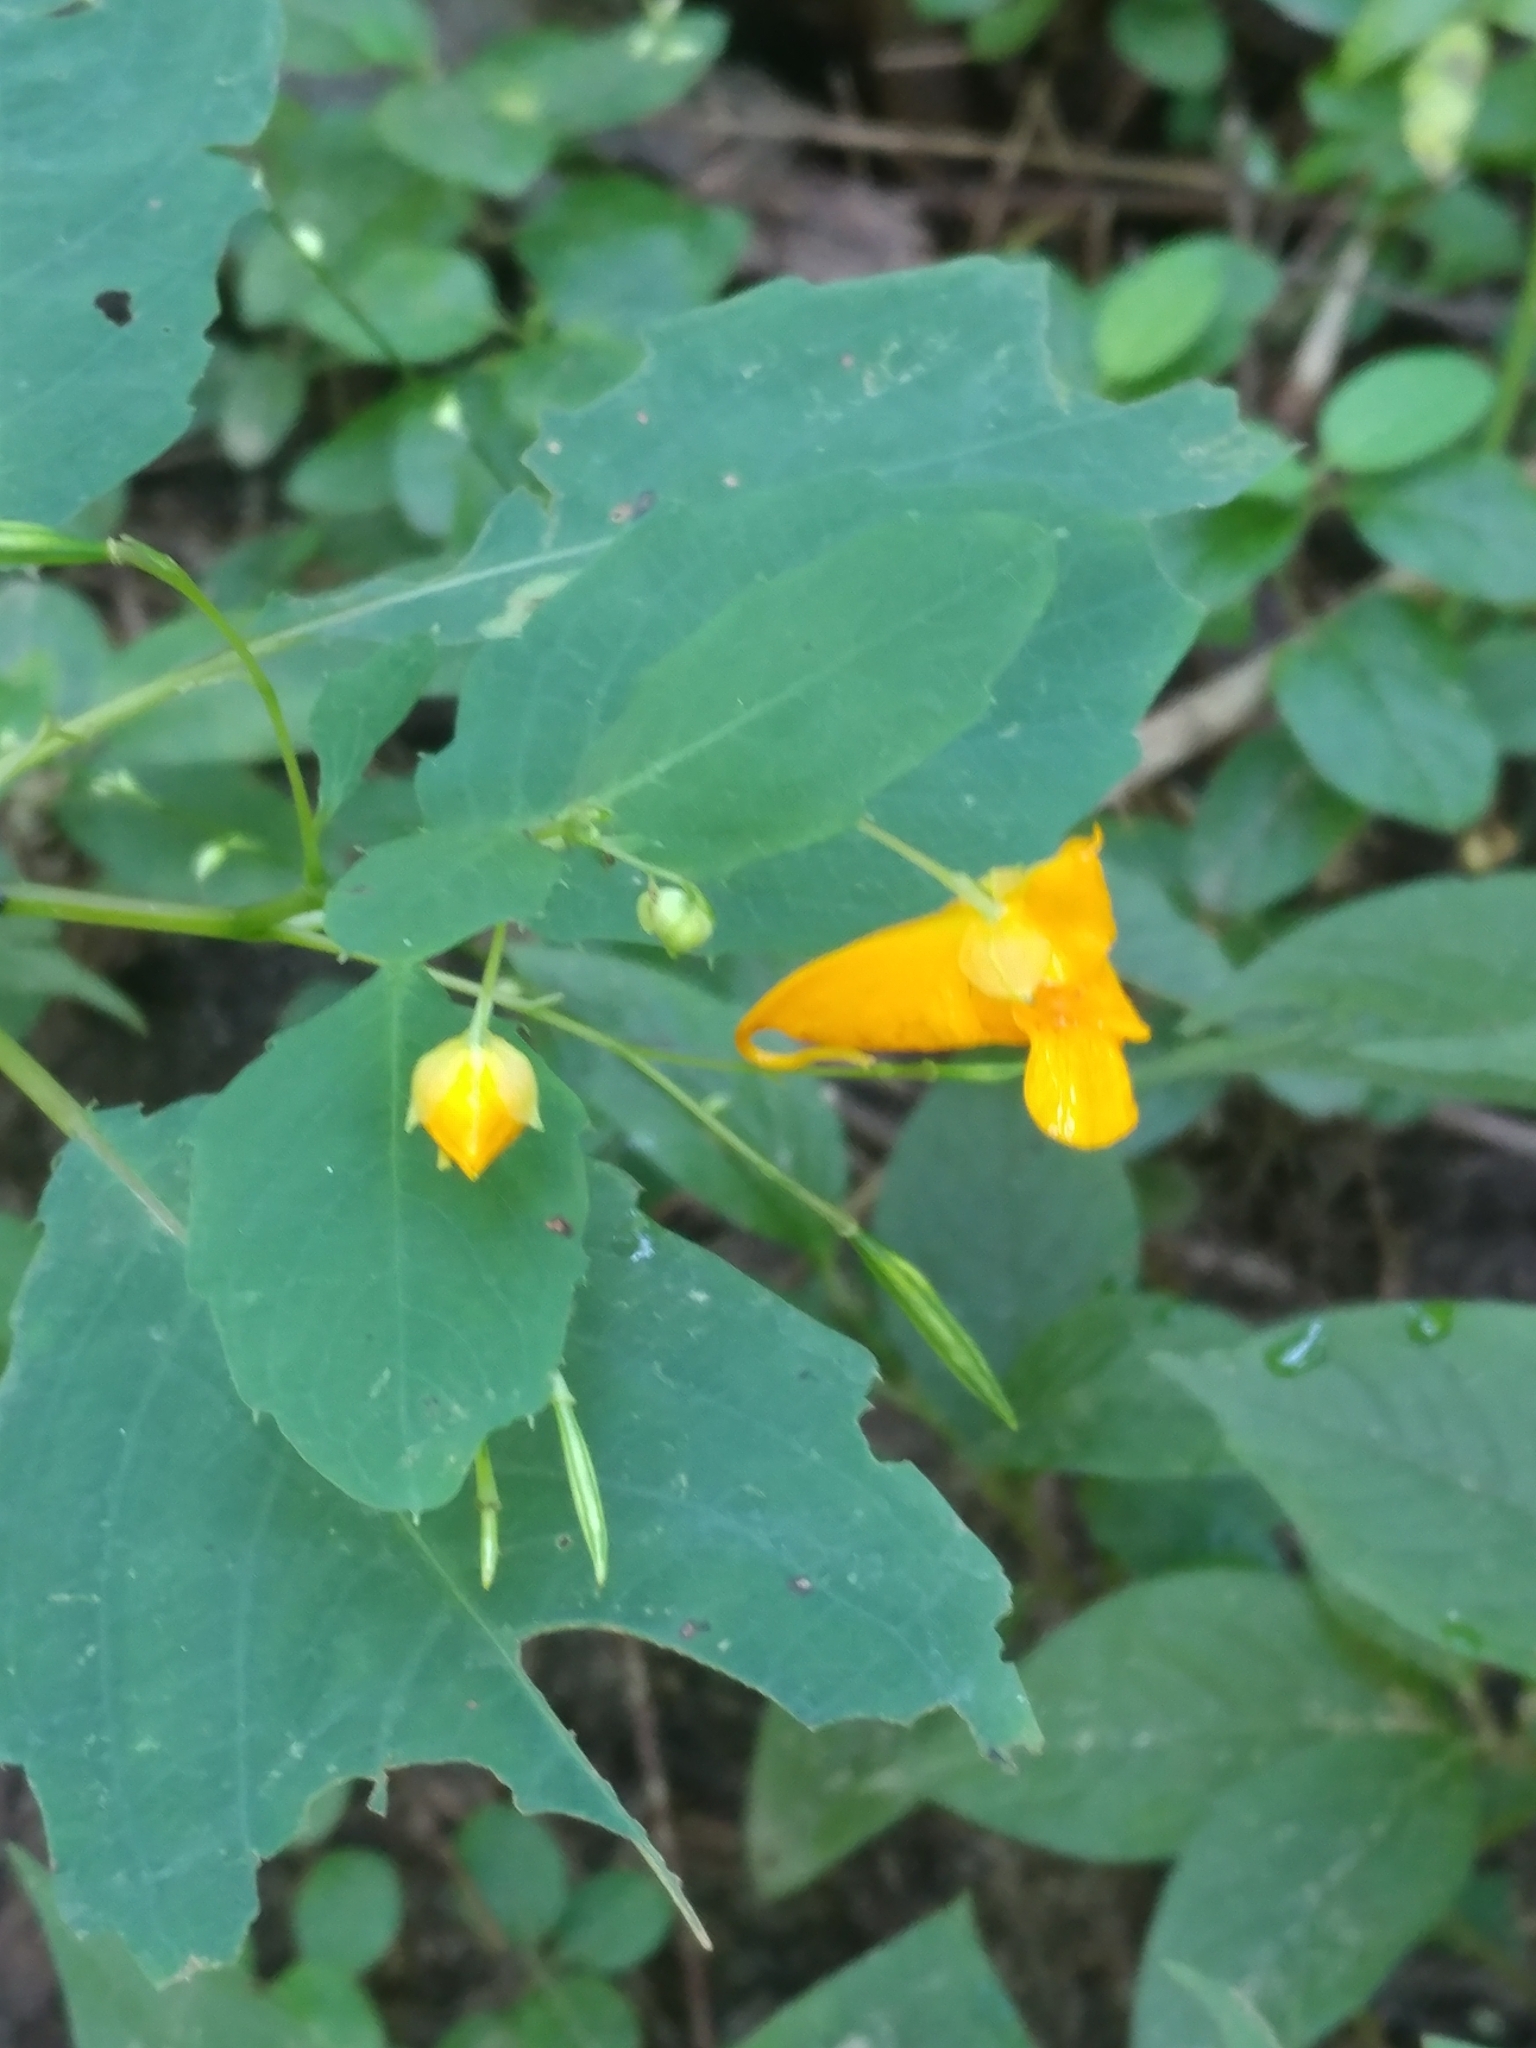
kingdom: Plantae
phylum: Tracheophyta
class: Magnoliopsida
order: Ericales
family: Balsaminaceae
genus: Impatiens
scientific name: Impatiens capensis
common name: Orange balsam
